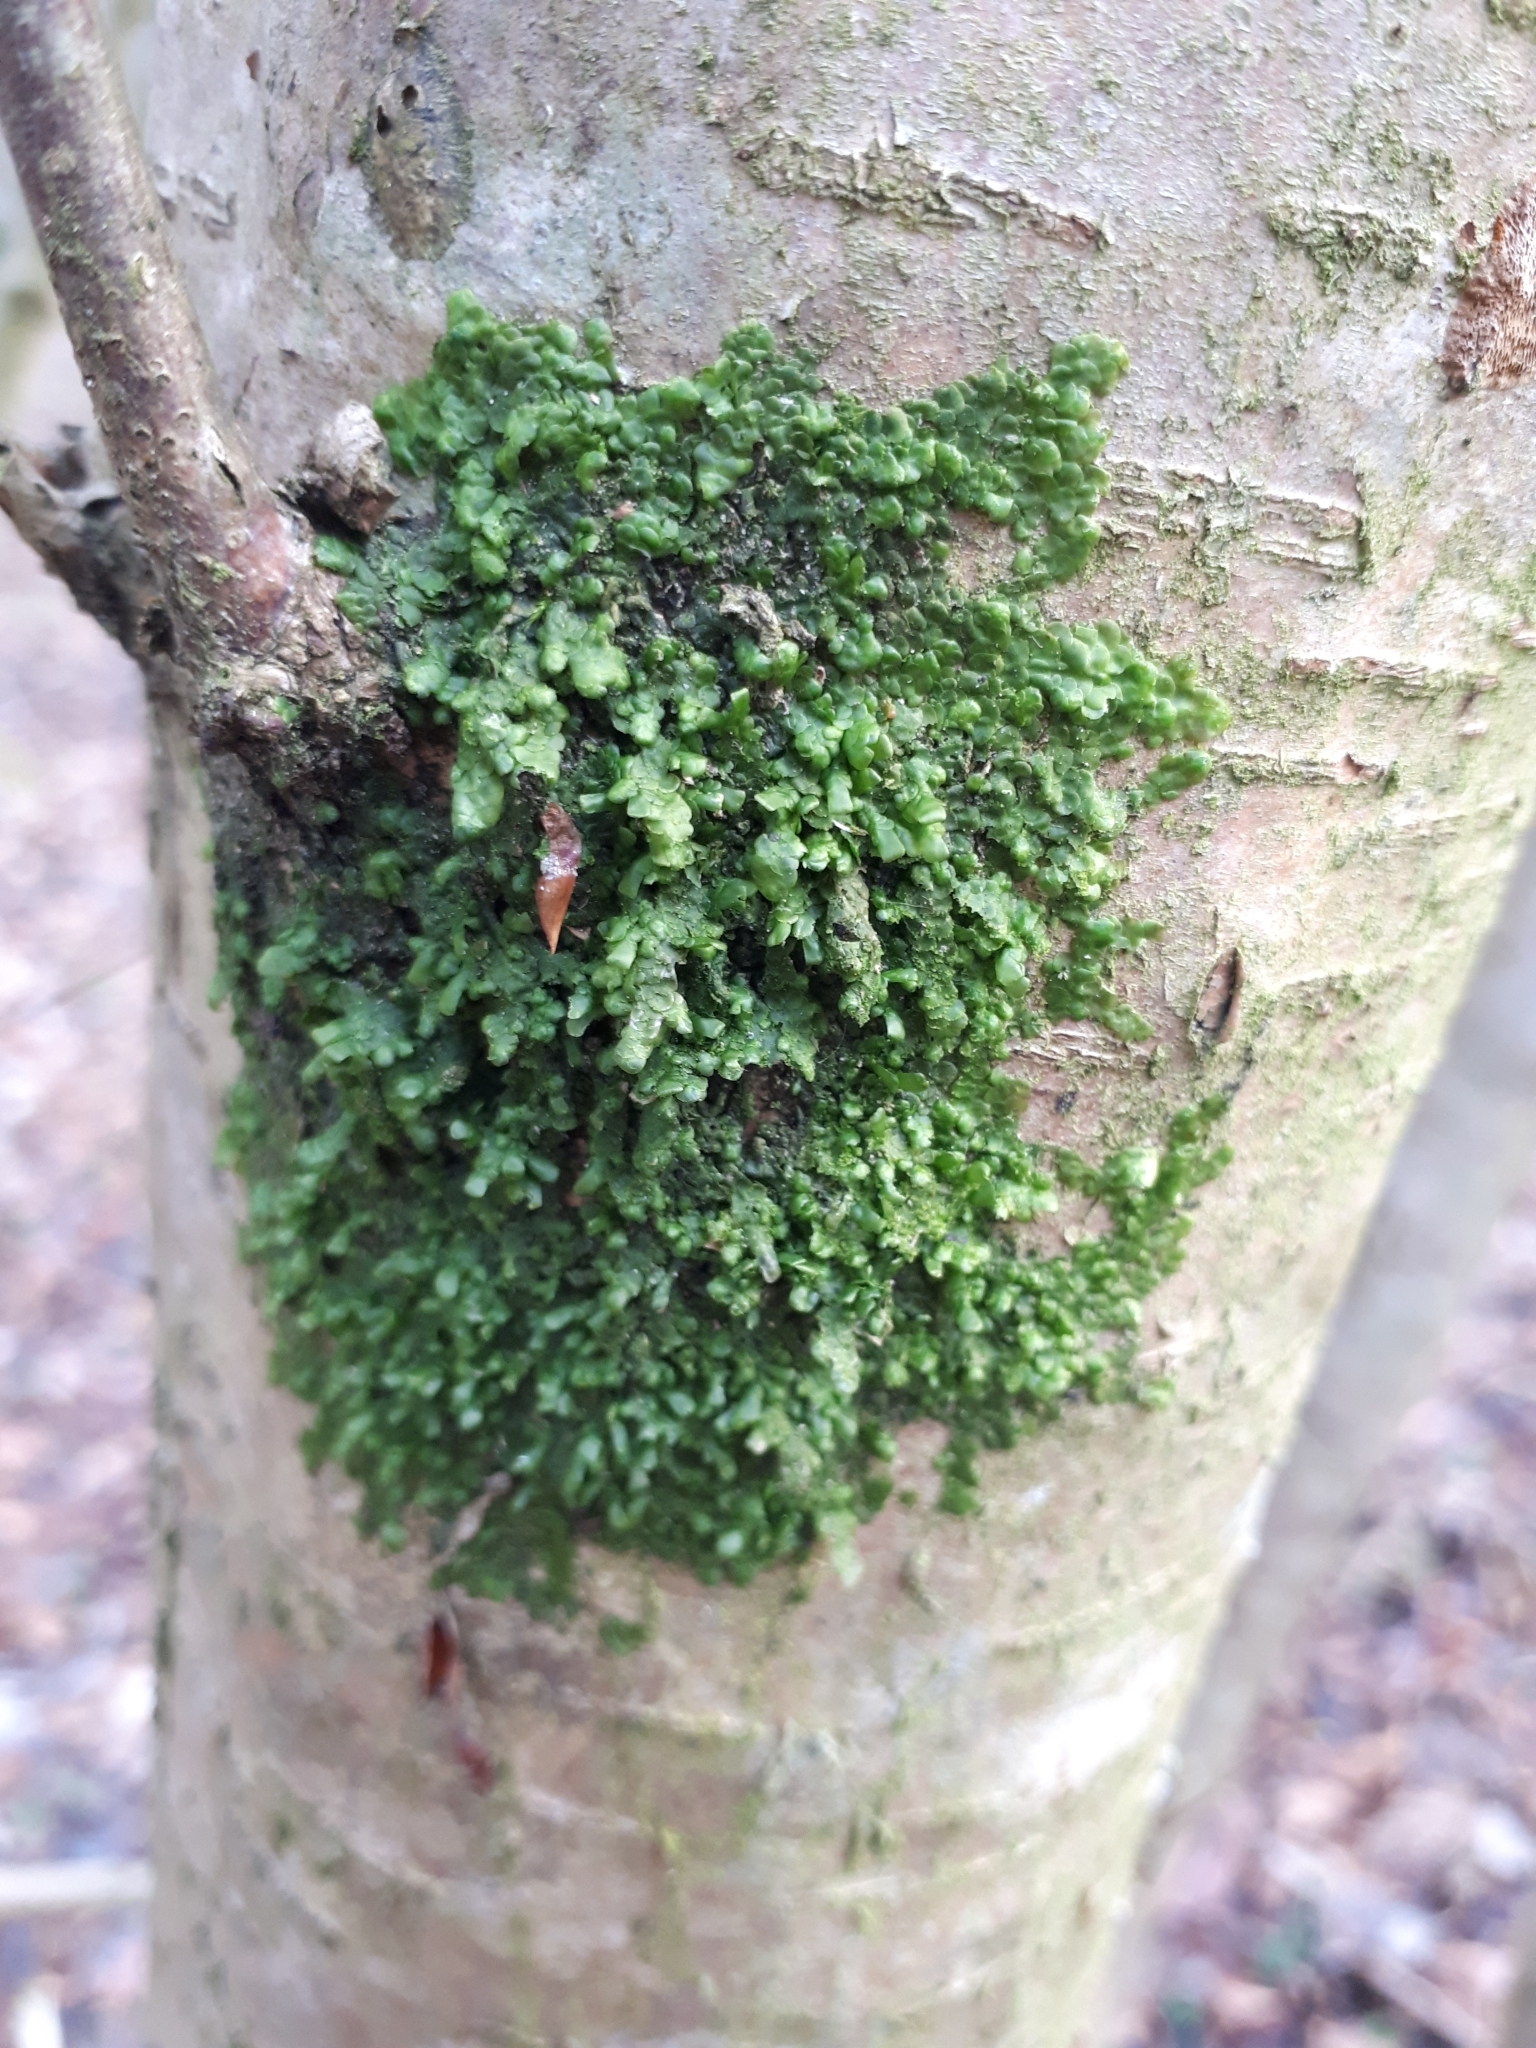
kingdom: Plantae
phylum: Marchantiophyta
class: Jungermanniopsida
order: Porellales
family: Radulaceae
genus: Radula
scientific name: Radula complanata
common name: Flat-leaved scalewort
